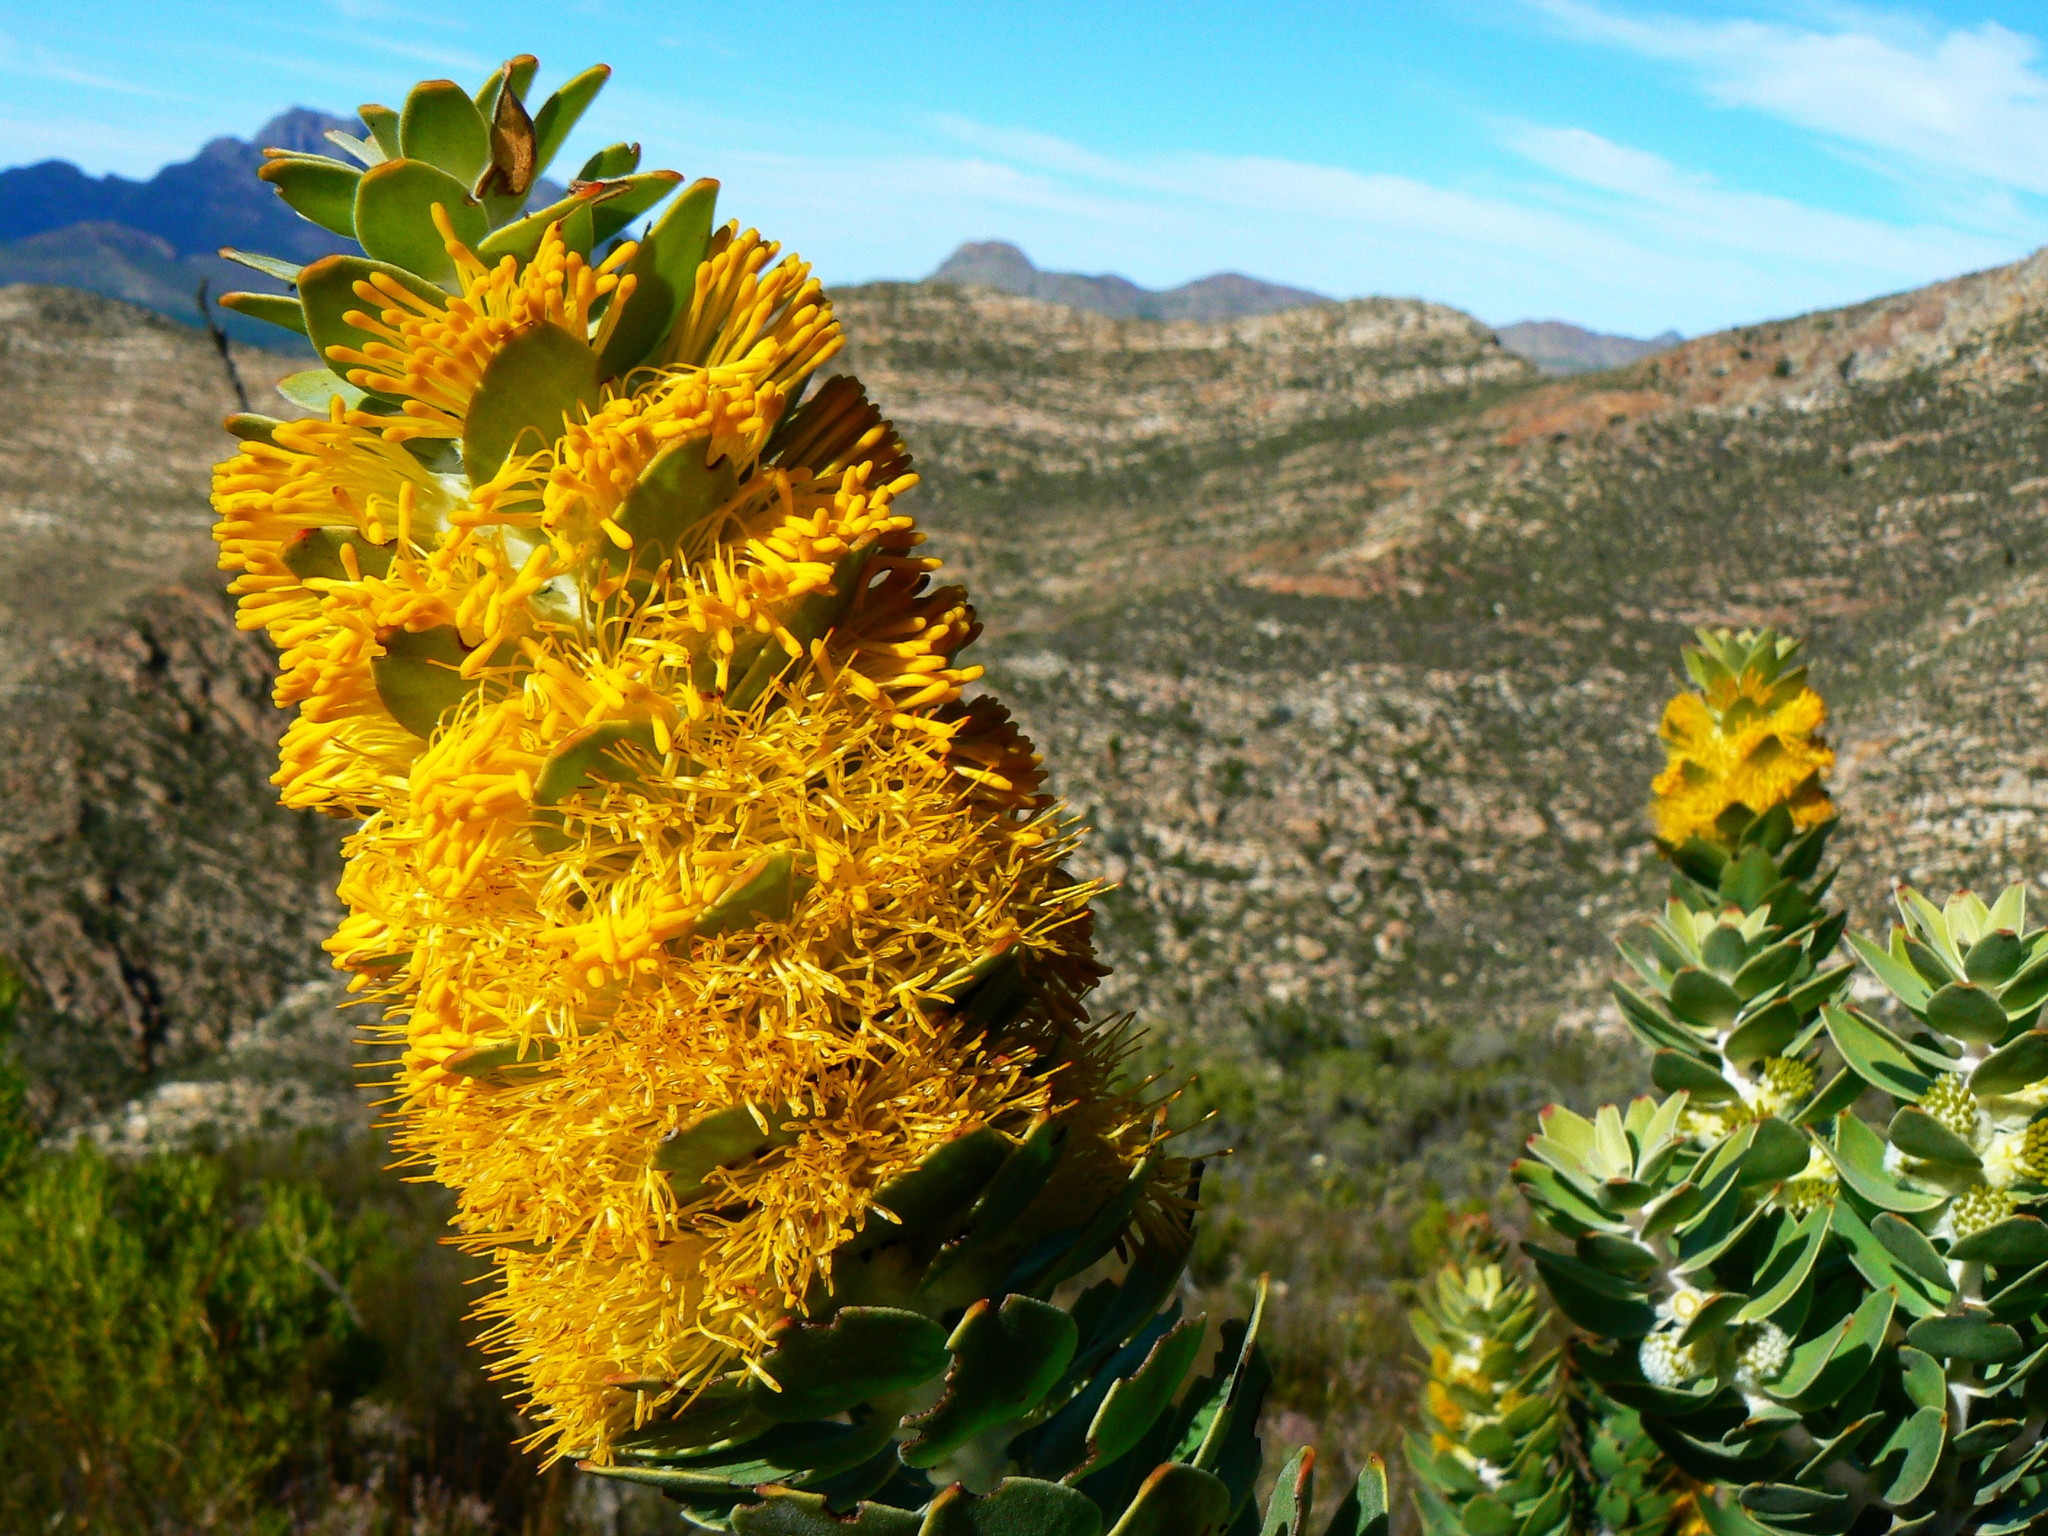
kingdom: Plantae
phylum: Tracheophyta
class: Magnoliopsida
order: Proteales
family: Proteaceae
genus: Mimetes
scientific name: Mimetes chrysanthus
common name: Golden pagoda
